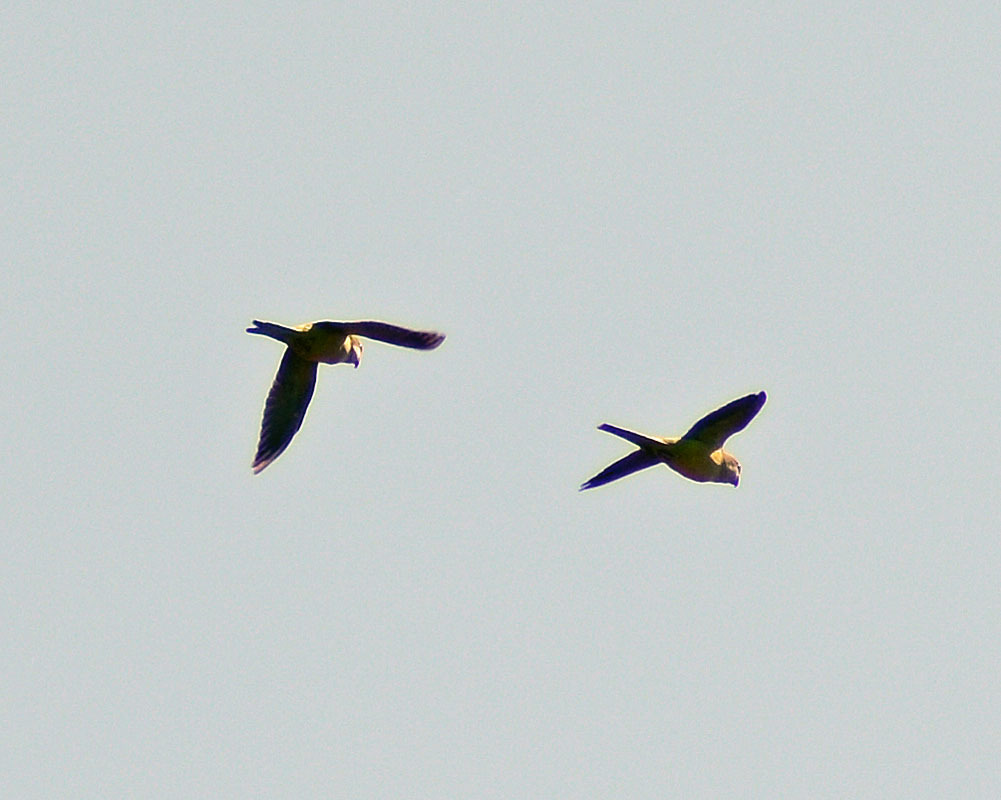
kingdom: Animalia
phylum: Chordata
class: Aves
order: Psittaciformes
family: Psittacidae
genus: Myiopsitta
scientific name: Myiopsitta monachus
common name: Monk parakeet
